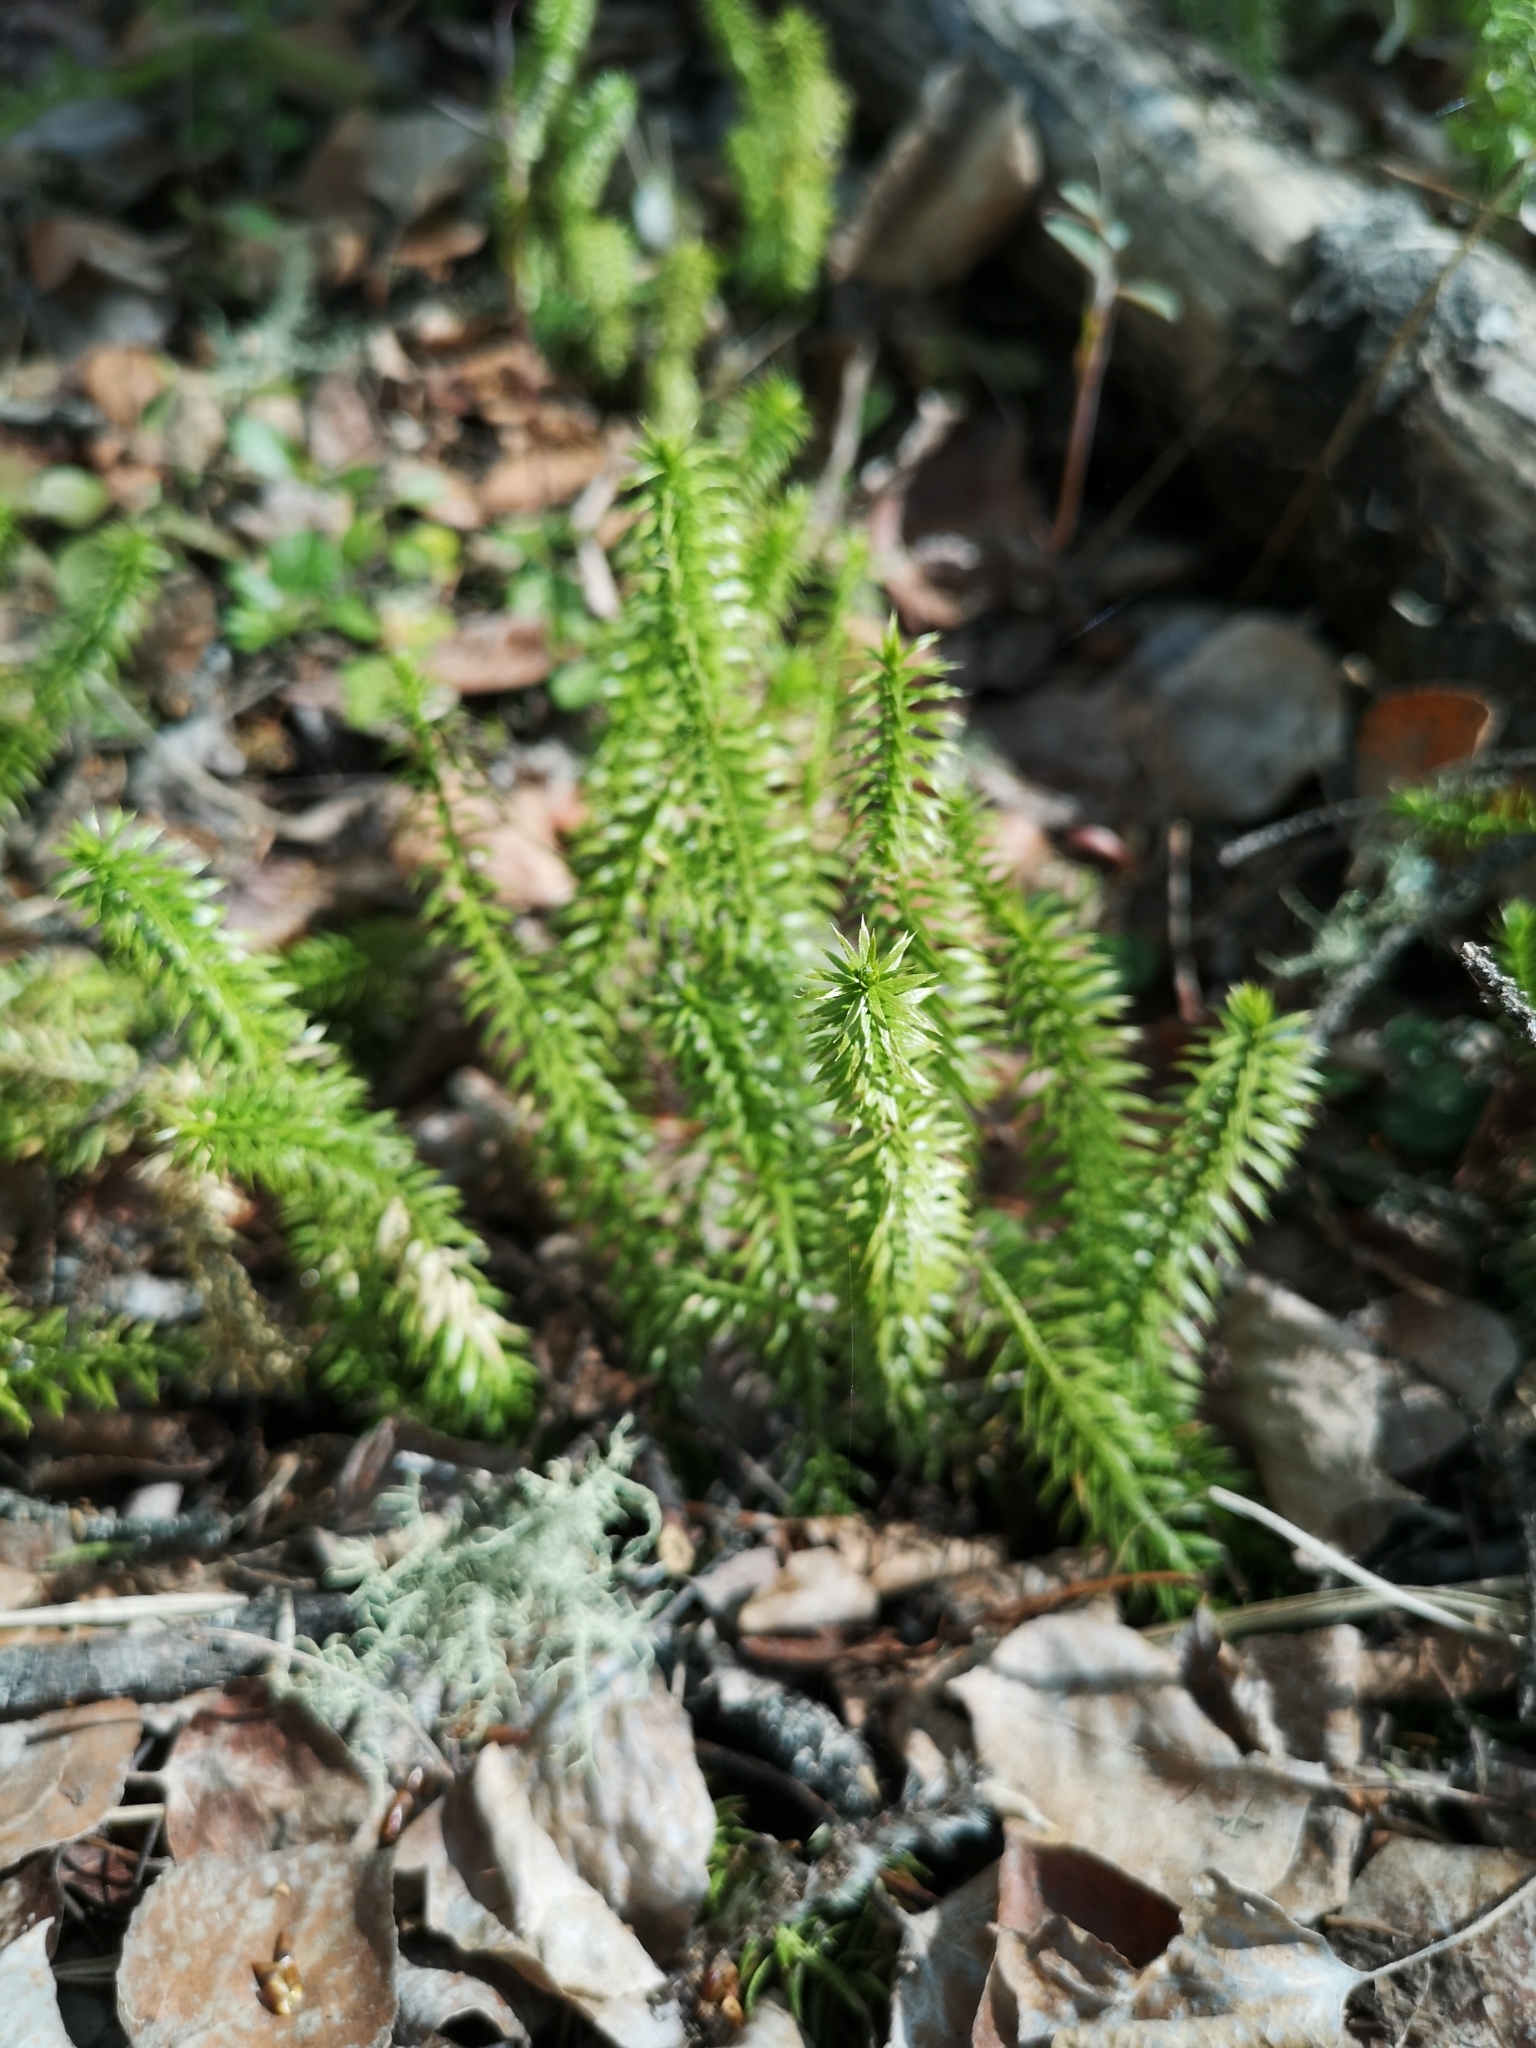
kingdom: Plantae
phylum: Tracheophyta
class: Lycopodiopsida
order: Lycopodiales
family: Lycopodiaceae
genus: Spinulum
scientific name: Spinulum annotinum
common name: Interrupted club-moss
